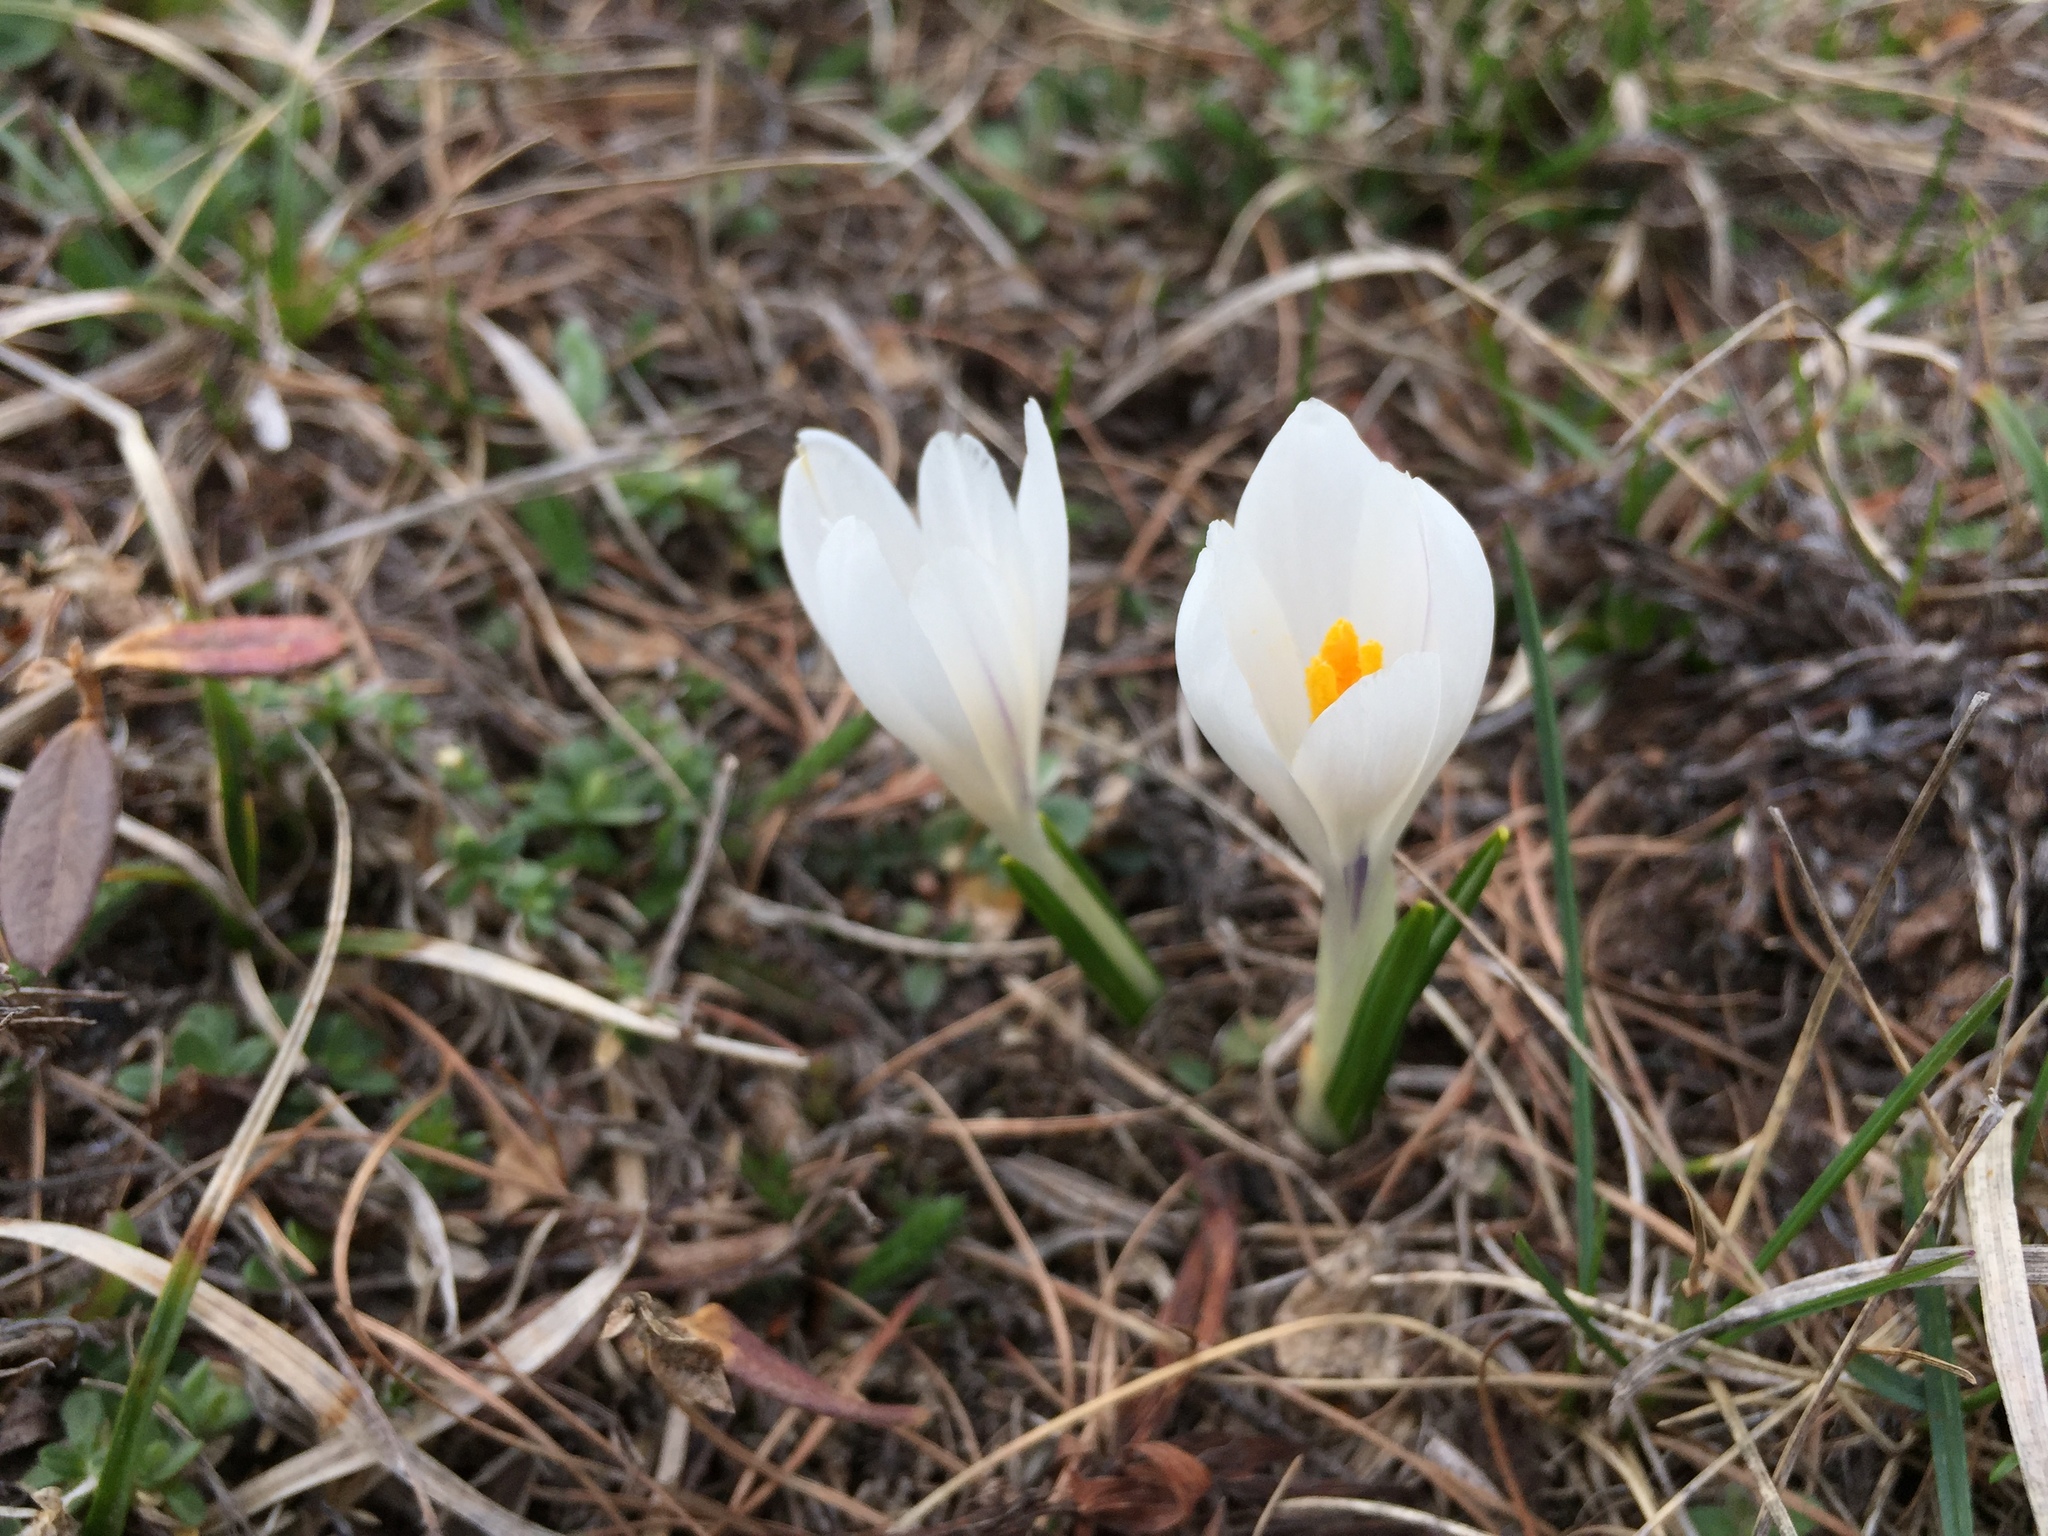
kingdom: Plantae
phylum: Tracheophyta
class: Liliopsida
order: Asparagales
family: Iridaceae
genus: Crocus
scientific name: Crocus vernus
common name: Spring crocus
